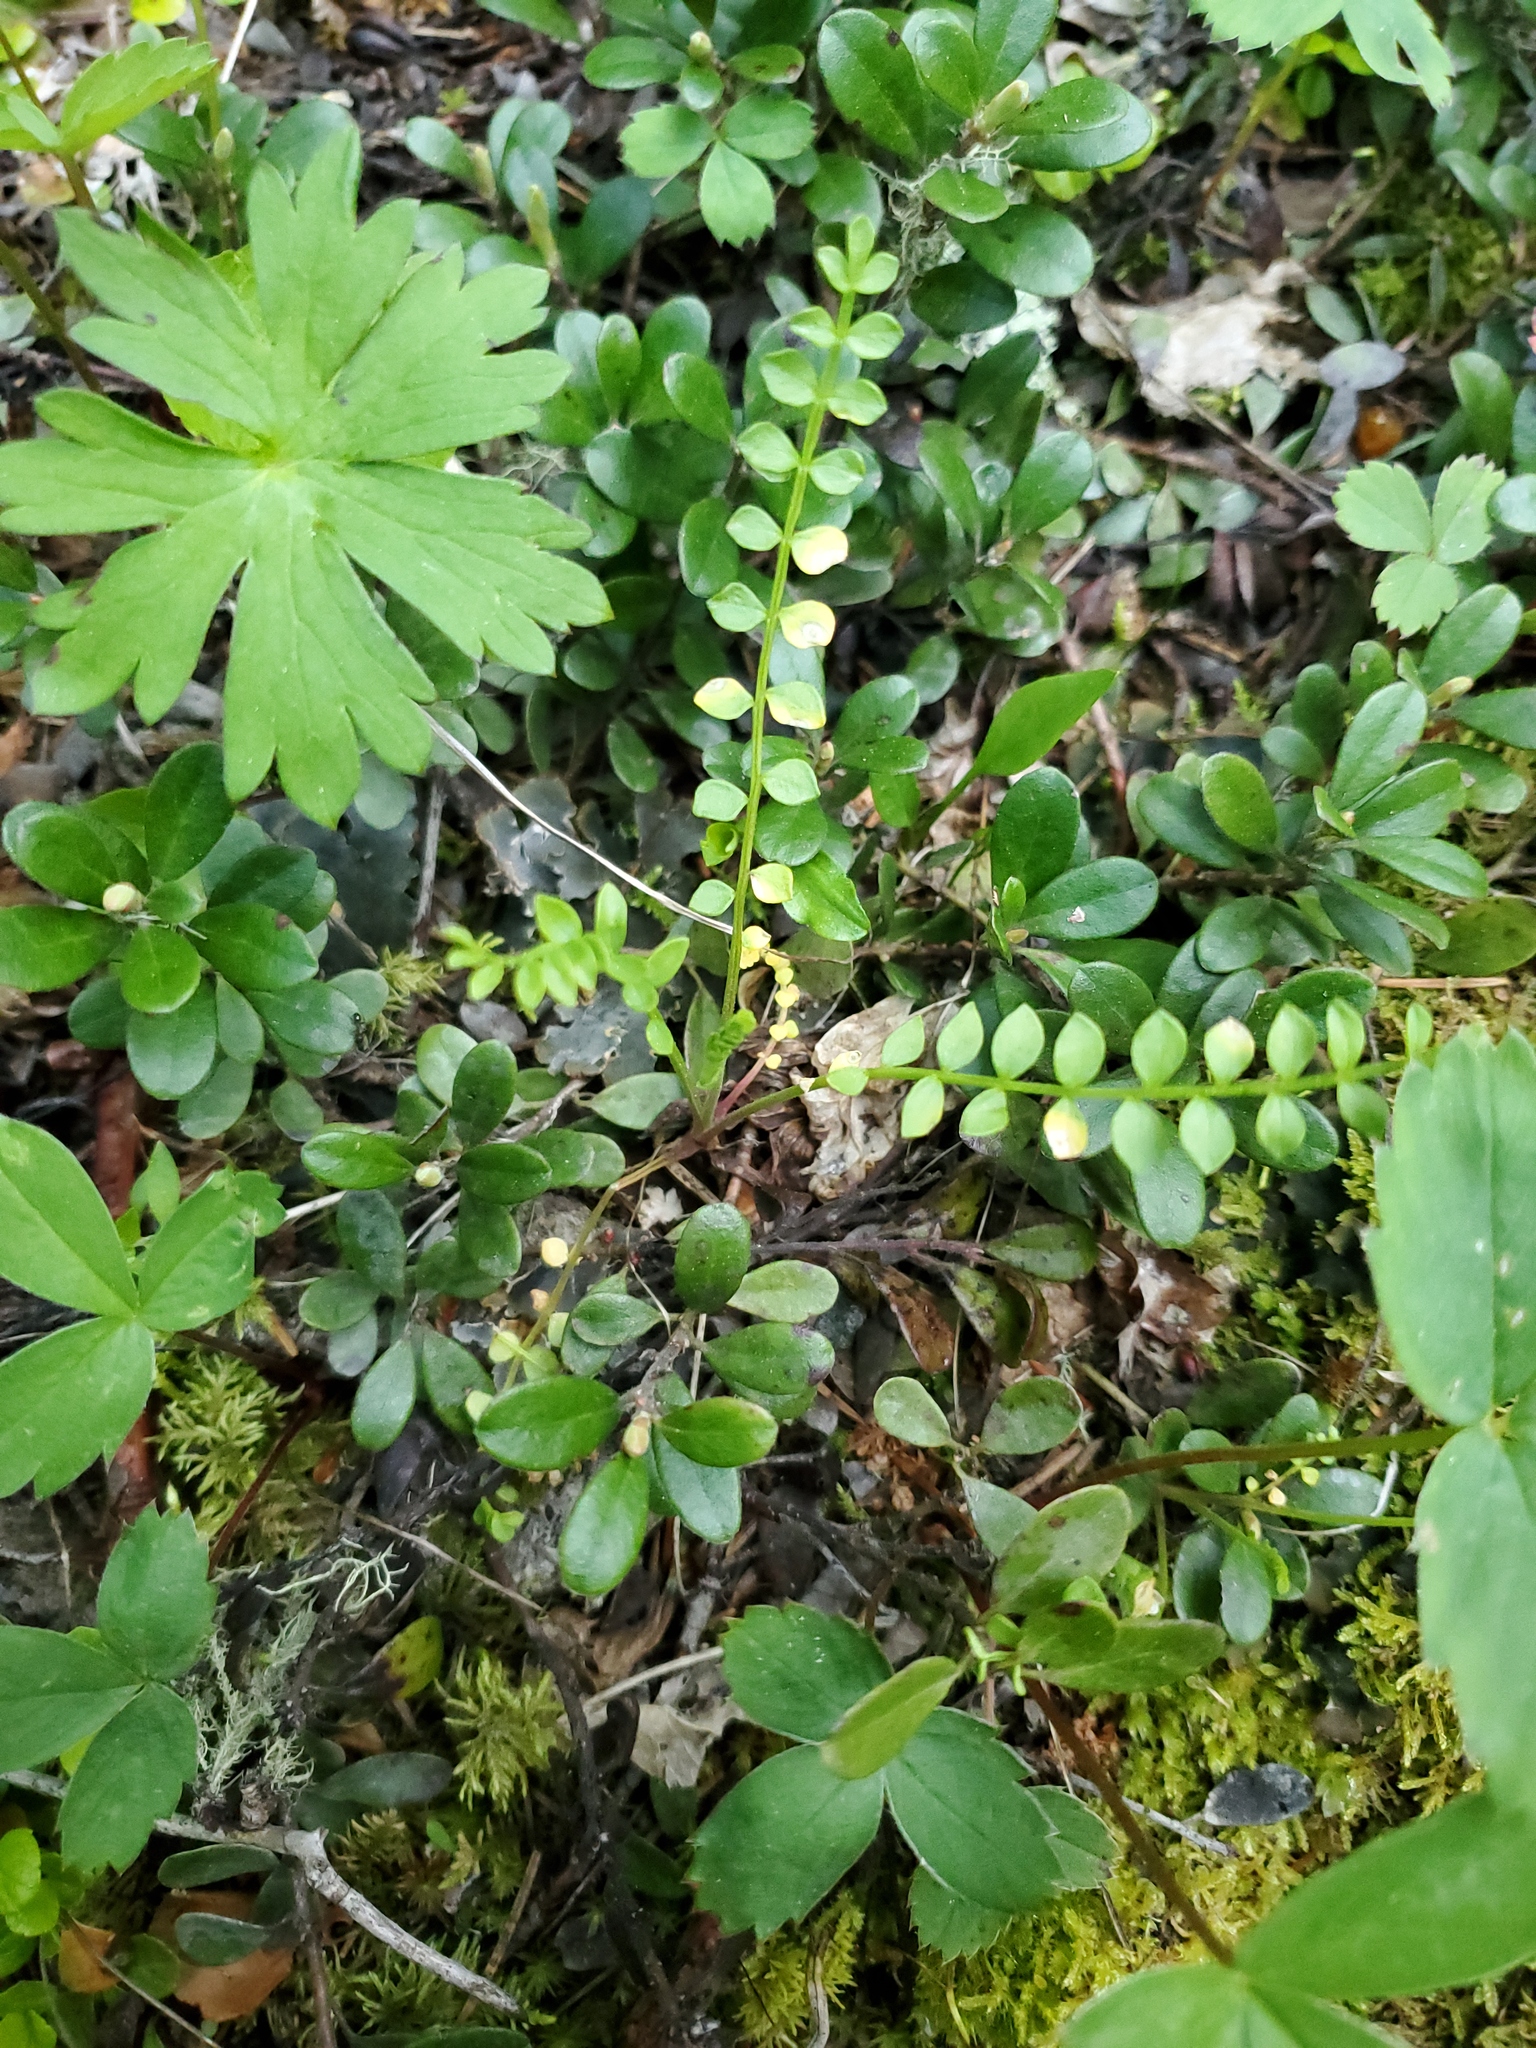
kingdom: Plantae
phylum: Tracheophyta
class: Magnoliopsida
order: Ericales
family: Polemoniaceae
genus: Polemonium
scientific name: Polemonium pulcherrimum
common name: Short jacob's-ladder
